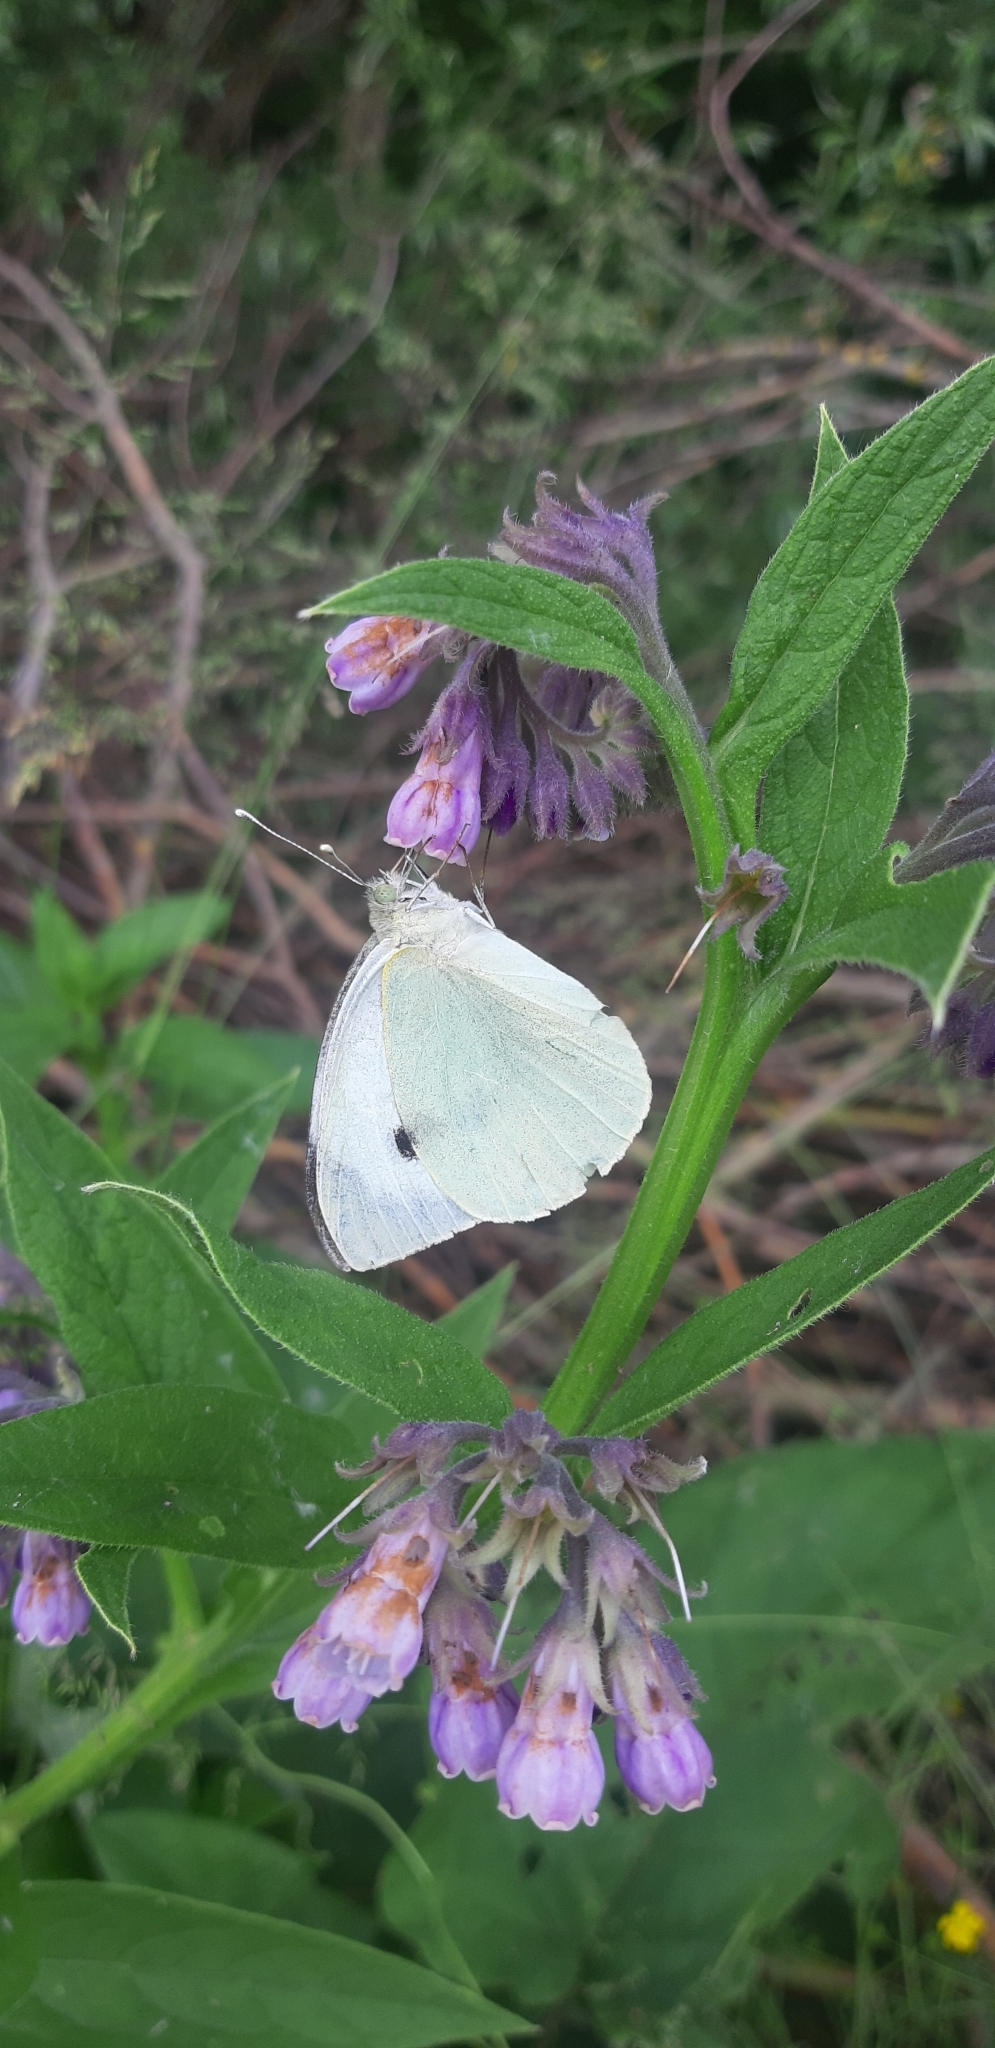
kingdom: Animalia
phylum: Arthropoda
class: Insecta
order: Lepidoptera
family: Pieridae
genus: Pieris
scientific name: Pieris brassicae
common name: Large white
